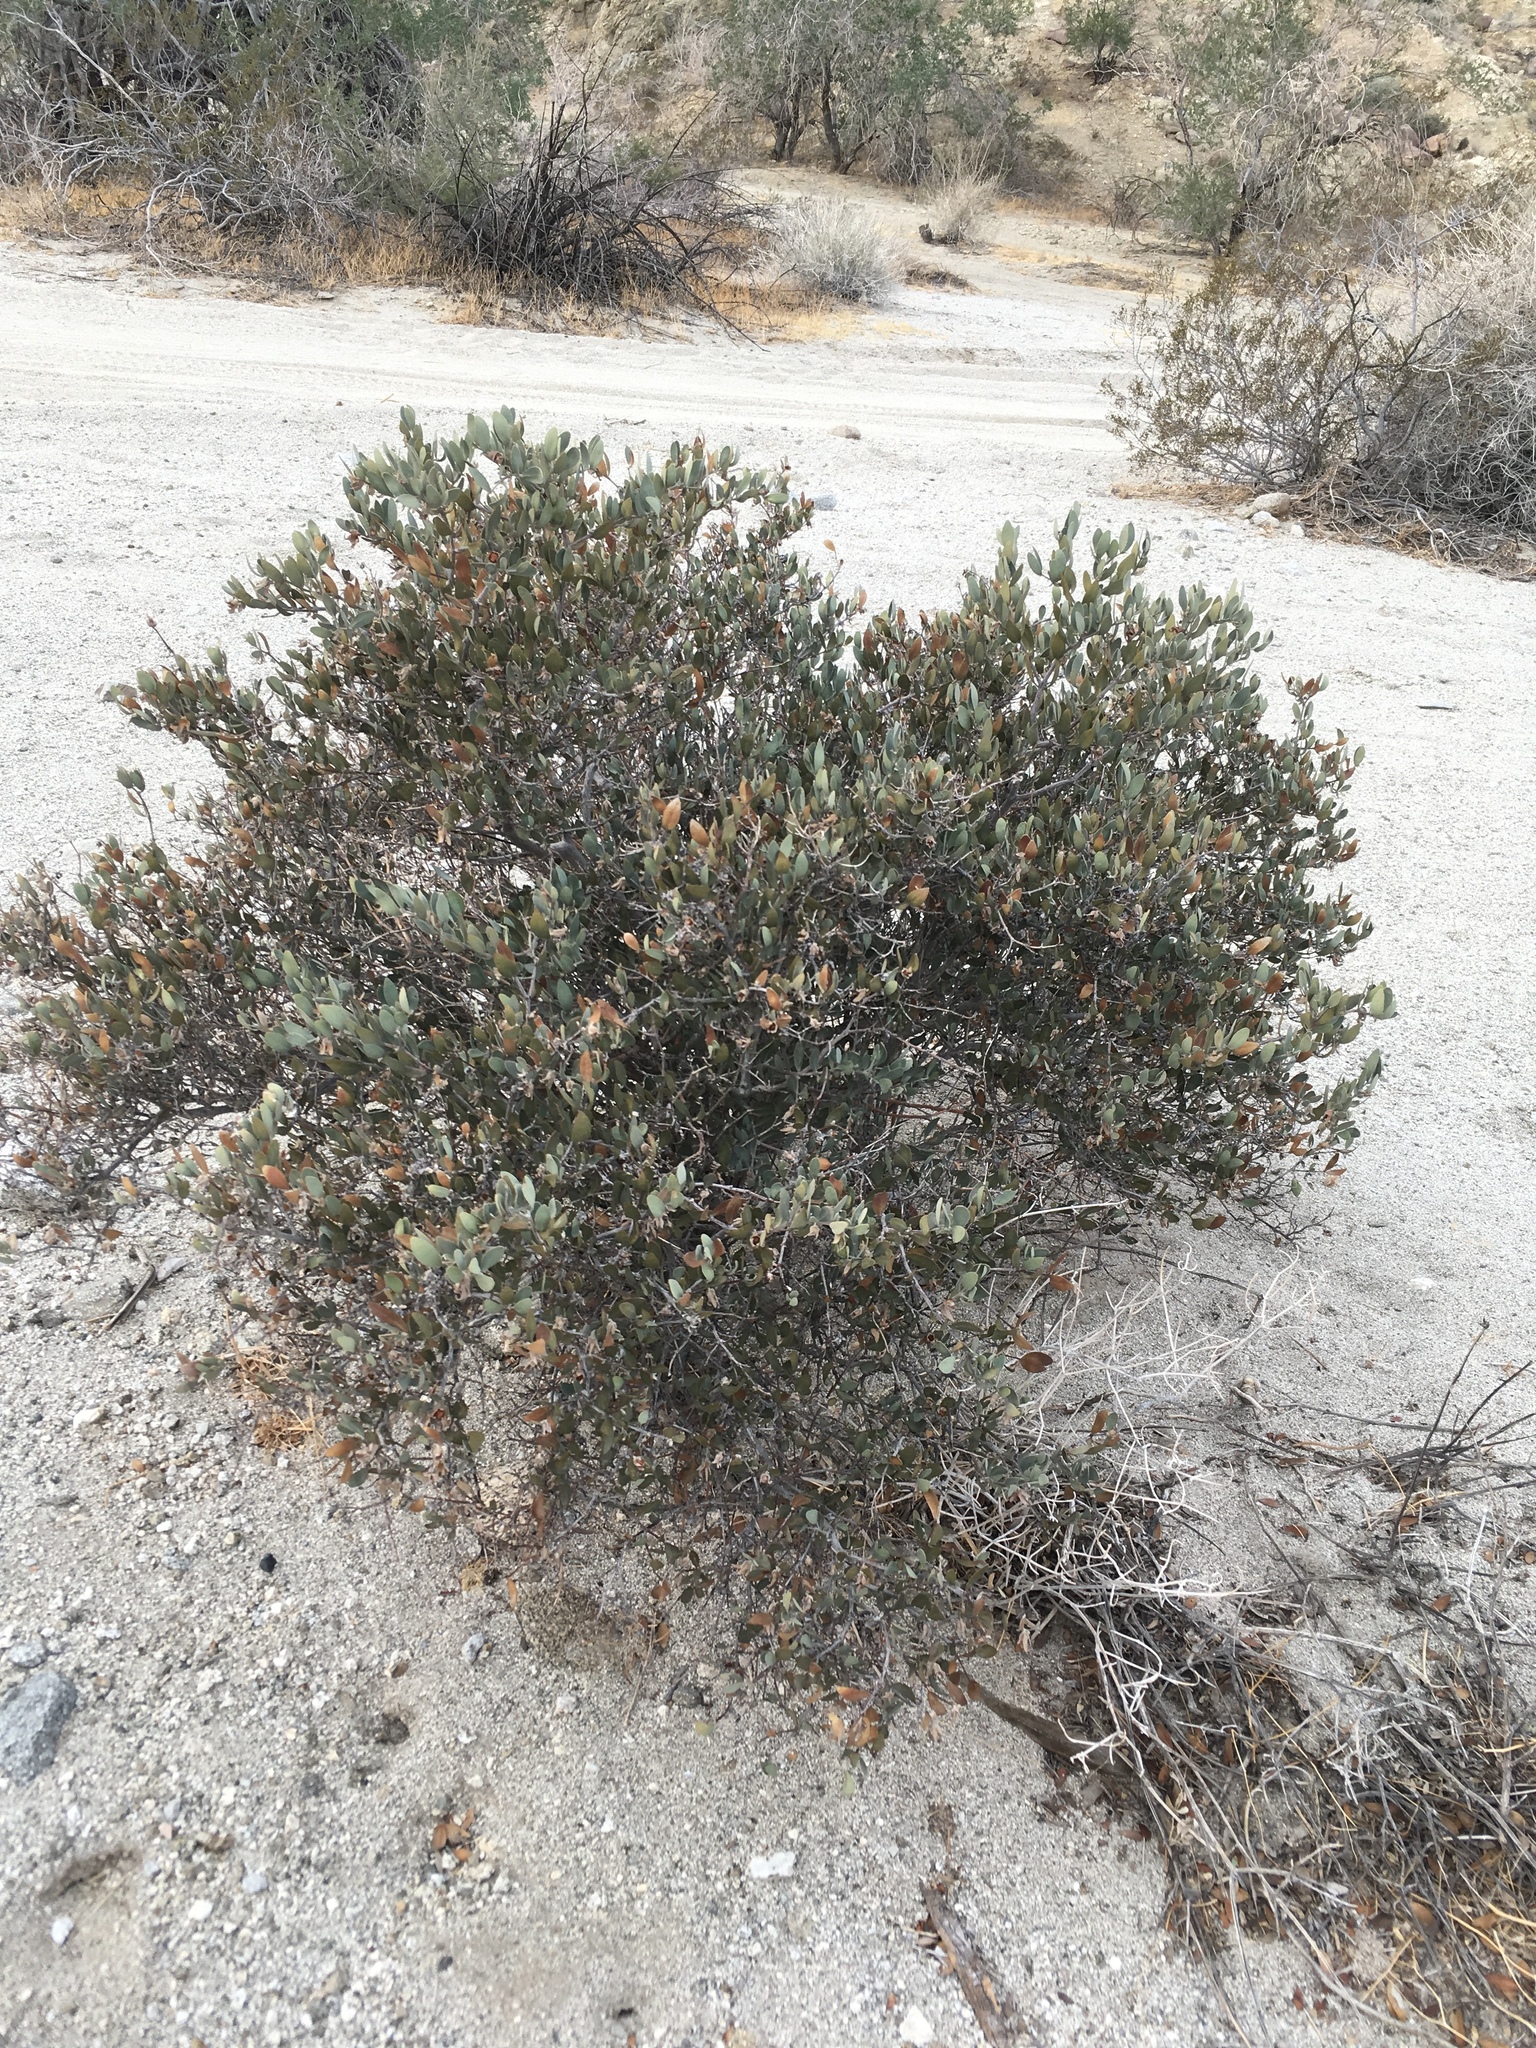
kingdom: Plantae
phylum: Tracheophyta
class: Magnoliopsida
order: Caryophyllales
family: Simmondsiaceae
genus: Simmondsia
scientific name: Simmondsia chinensis
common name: Jojoba
